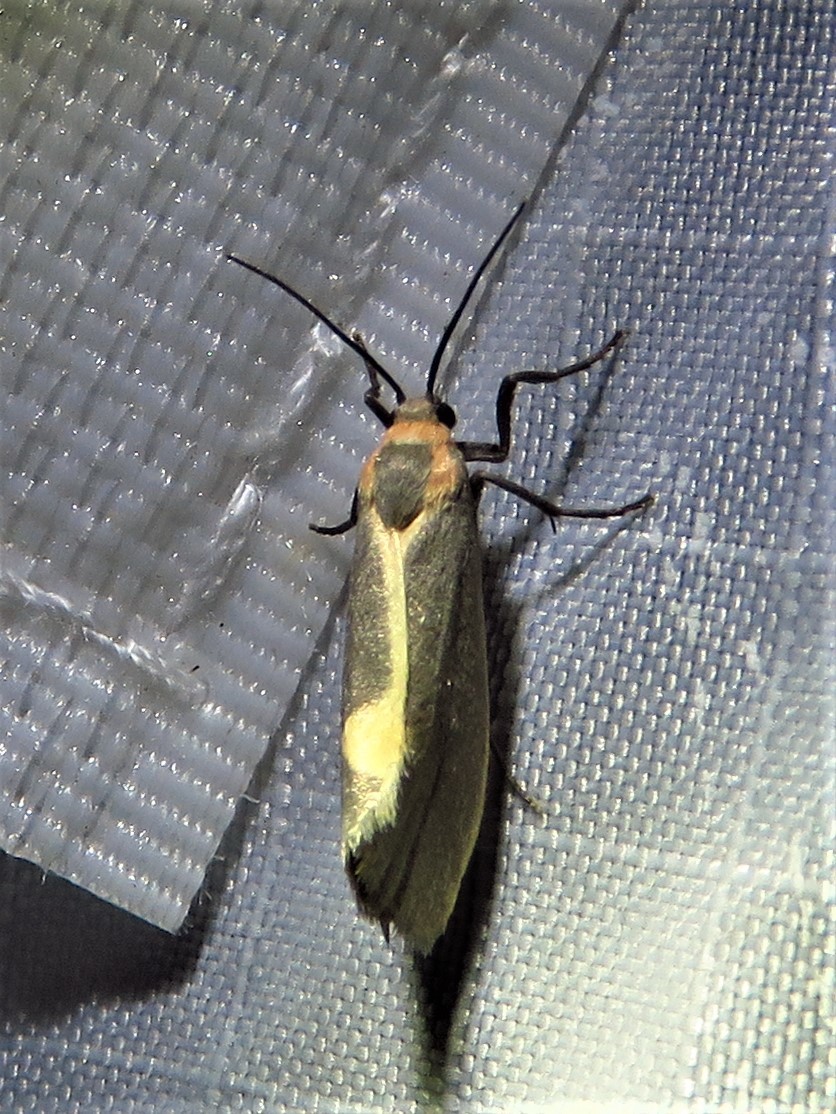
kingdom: Animalia
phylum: Arthropoda
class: Insecta
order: Lepidoptera
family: Erebidae
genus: Cisthene
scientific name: Cisthene plumbea
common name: Lead colored lichen moth
